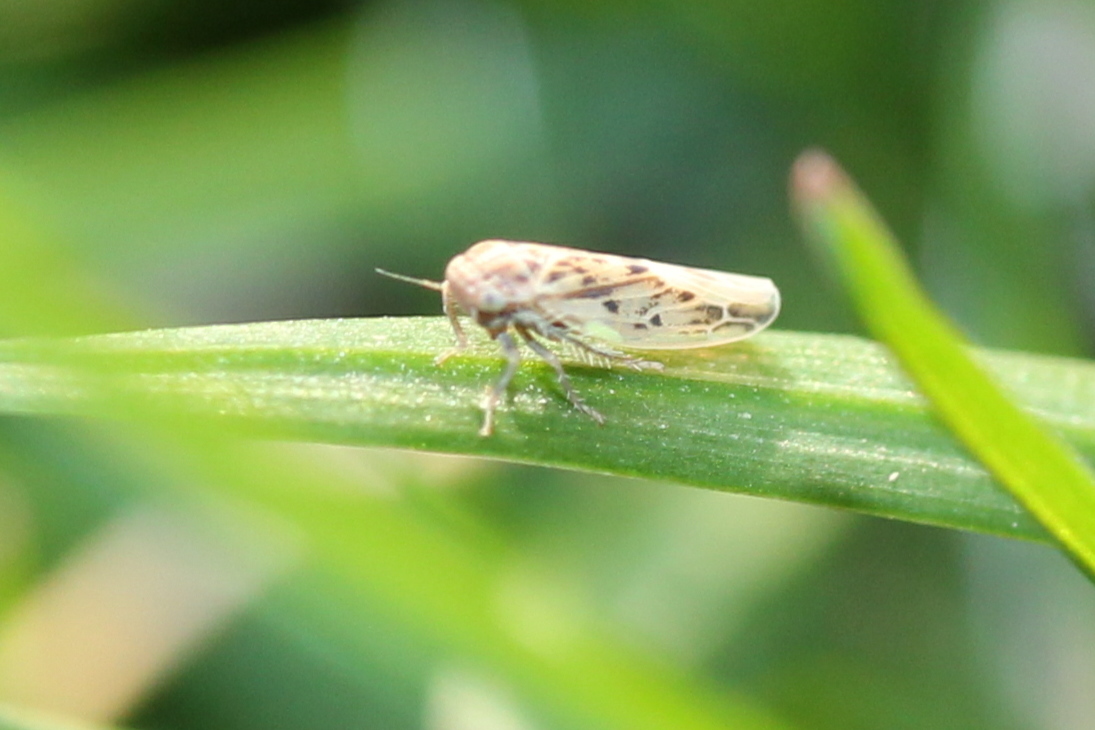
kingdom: Animalia
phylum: Arthropoda
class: Insecta
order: Hemiptera
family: Cicadellidae
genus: Balclutha
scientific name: Balclutha confluens
